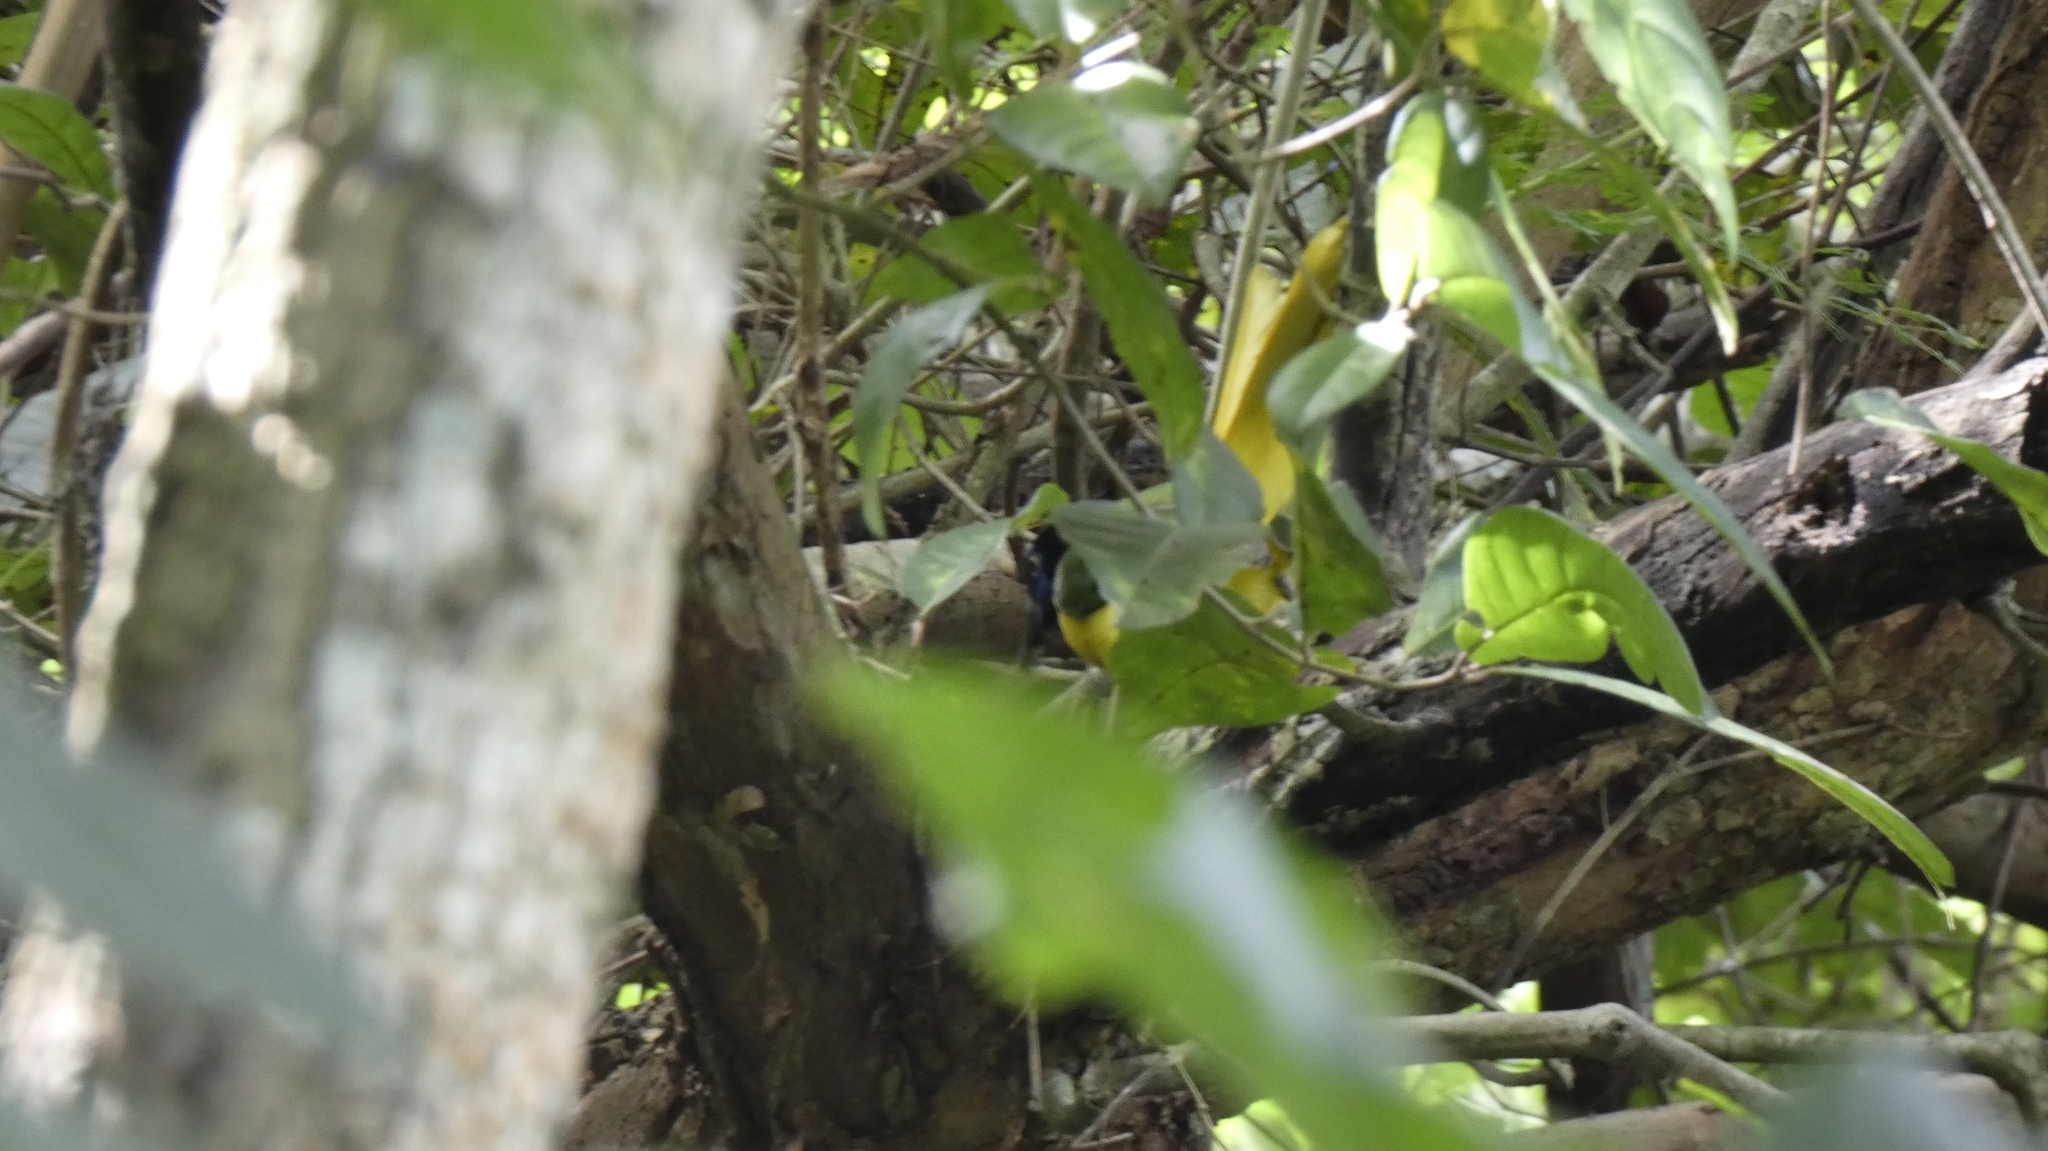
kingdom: Animalia
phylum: Chordata
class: Aves
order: Passeriformes
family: Corvidae
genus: Cyanocorax
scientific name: Cyanocorax yncas
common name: Green jay
